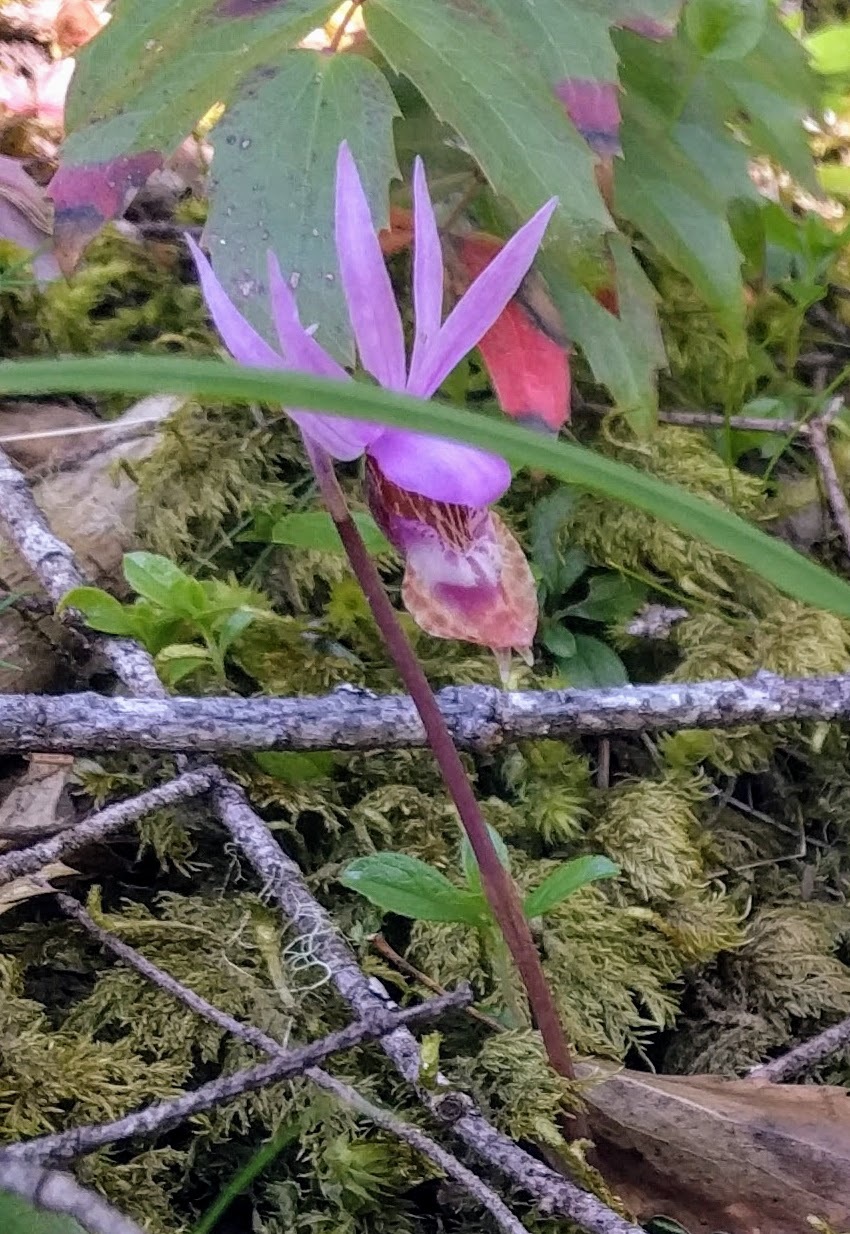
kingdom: Plantae
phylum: Tracheophyta
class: Liliopsida
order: Asparagales
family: Orchidaceae
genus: Calypso
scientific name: Calypso bulbosa
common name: Calypso
